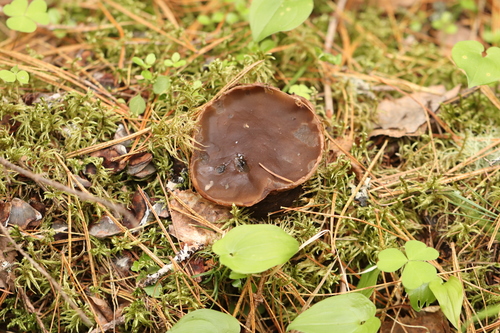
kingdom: Fungi
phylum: Ascomycota
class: Pezizomycetes
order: Pezizales
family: Sarcosomataceae
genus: Sarcosoma
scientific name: Sarcosoma globosum
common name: Charred-pancake cup
